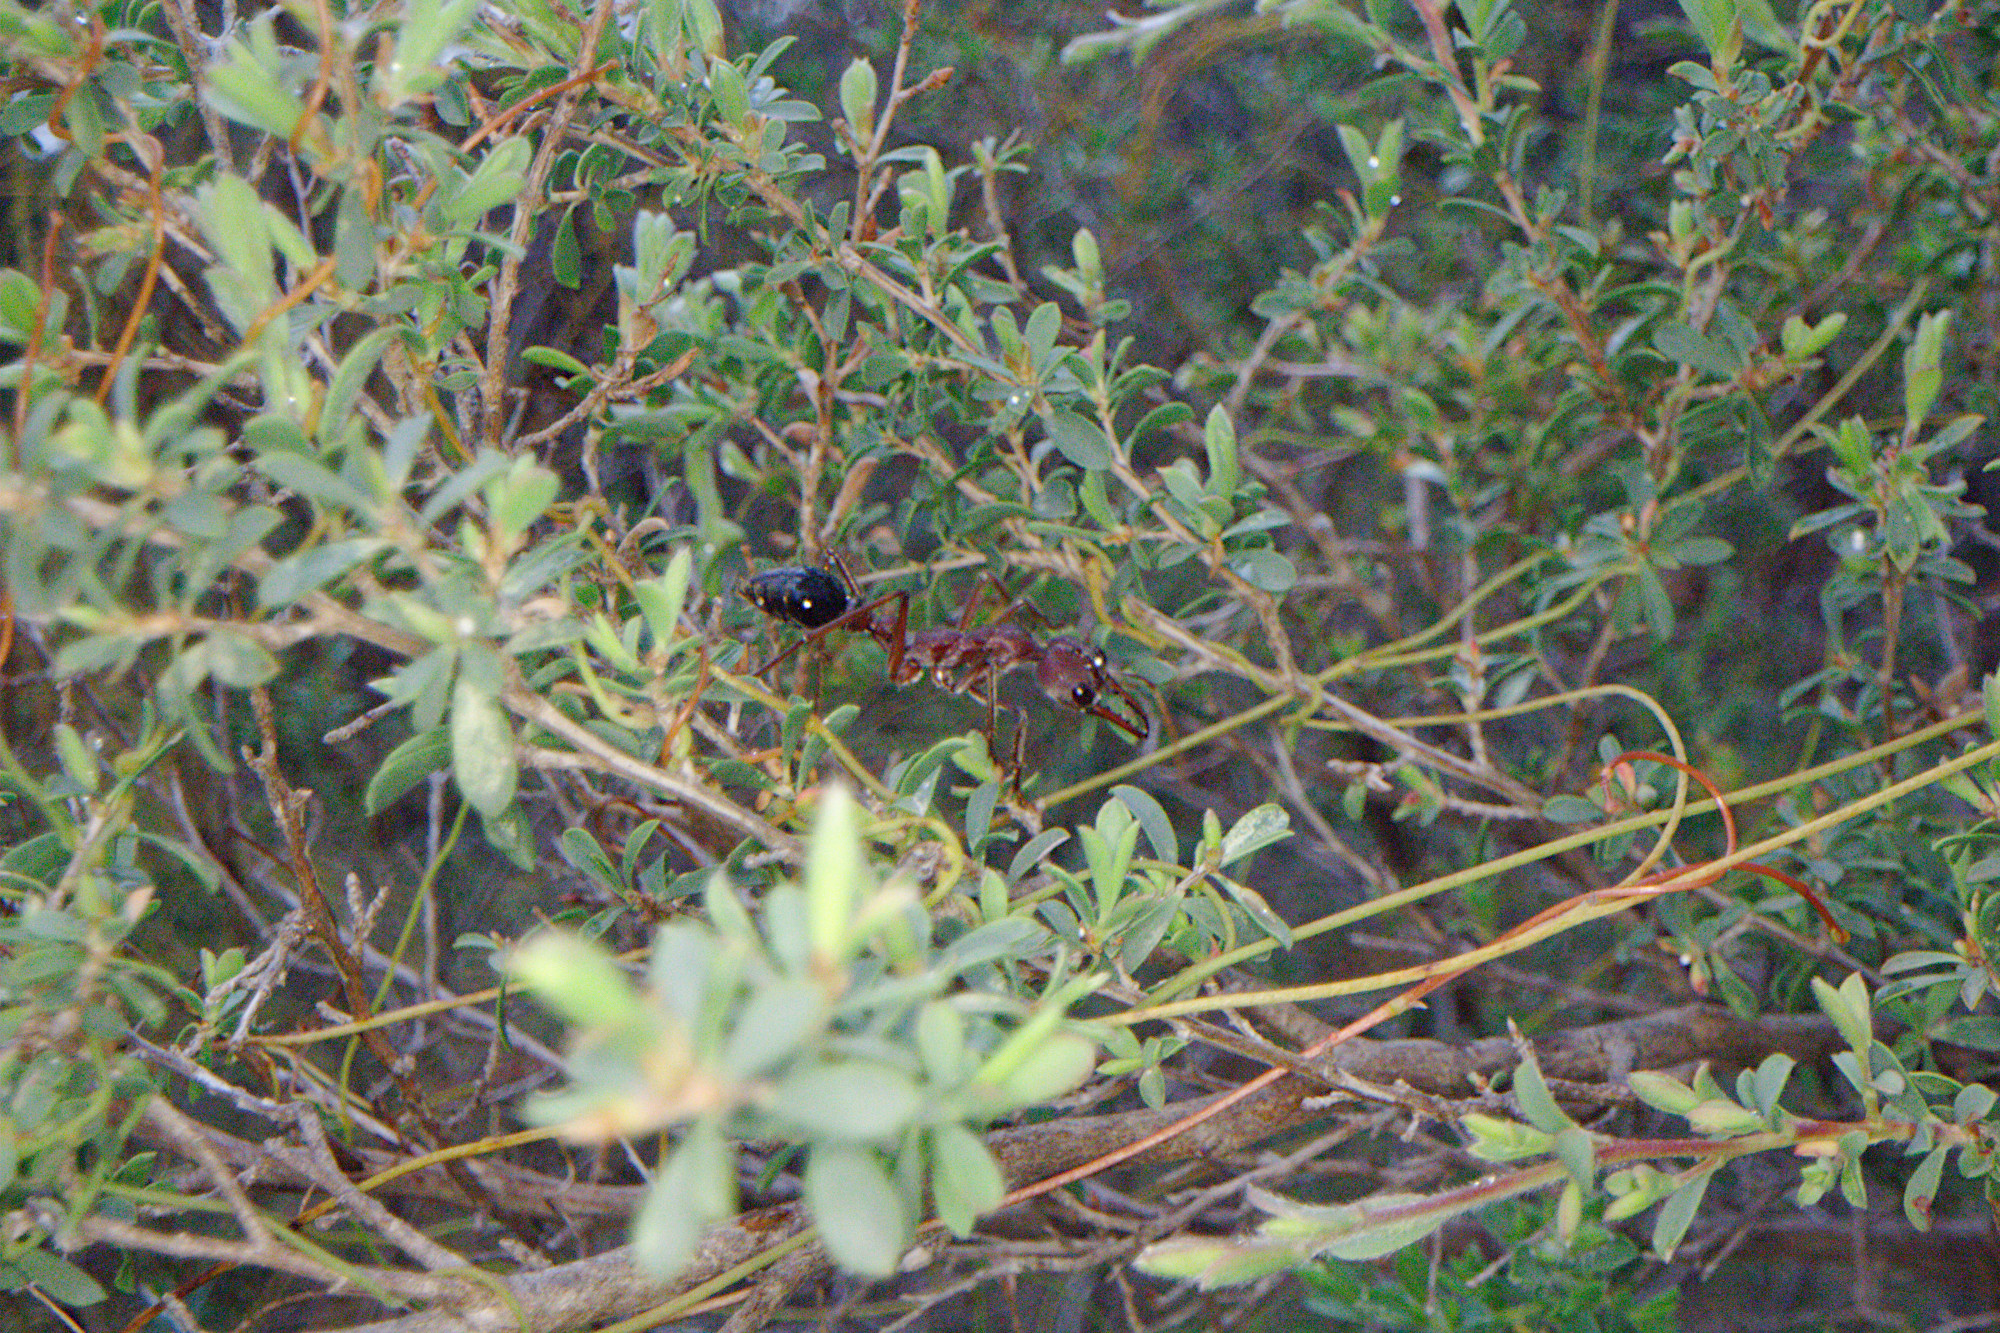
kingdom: Animalia
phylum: Arthropoda
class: Insecta
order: Hymenoptera
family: Formicidae
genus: Myrmecia
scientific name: Myrmecia simillima
